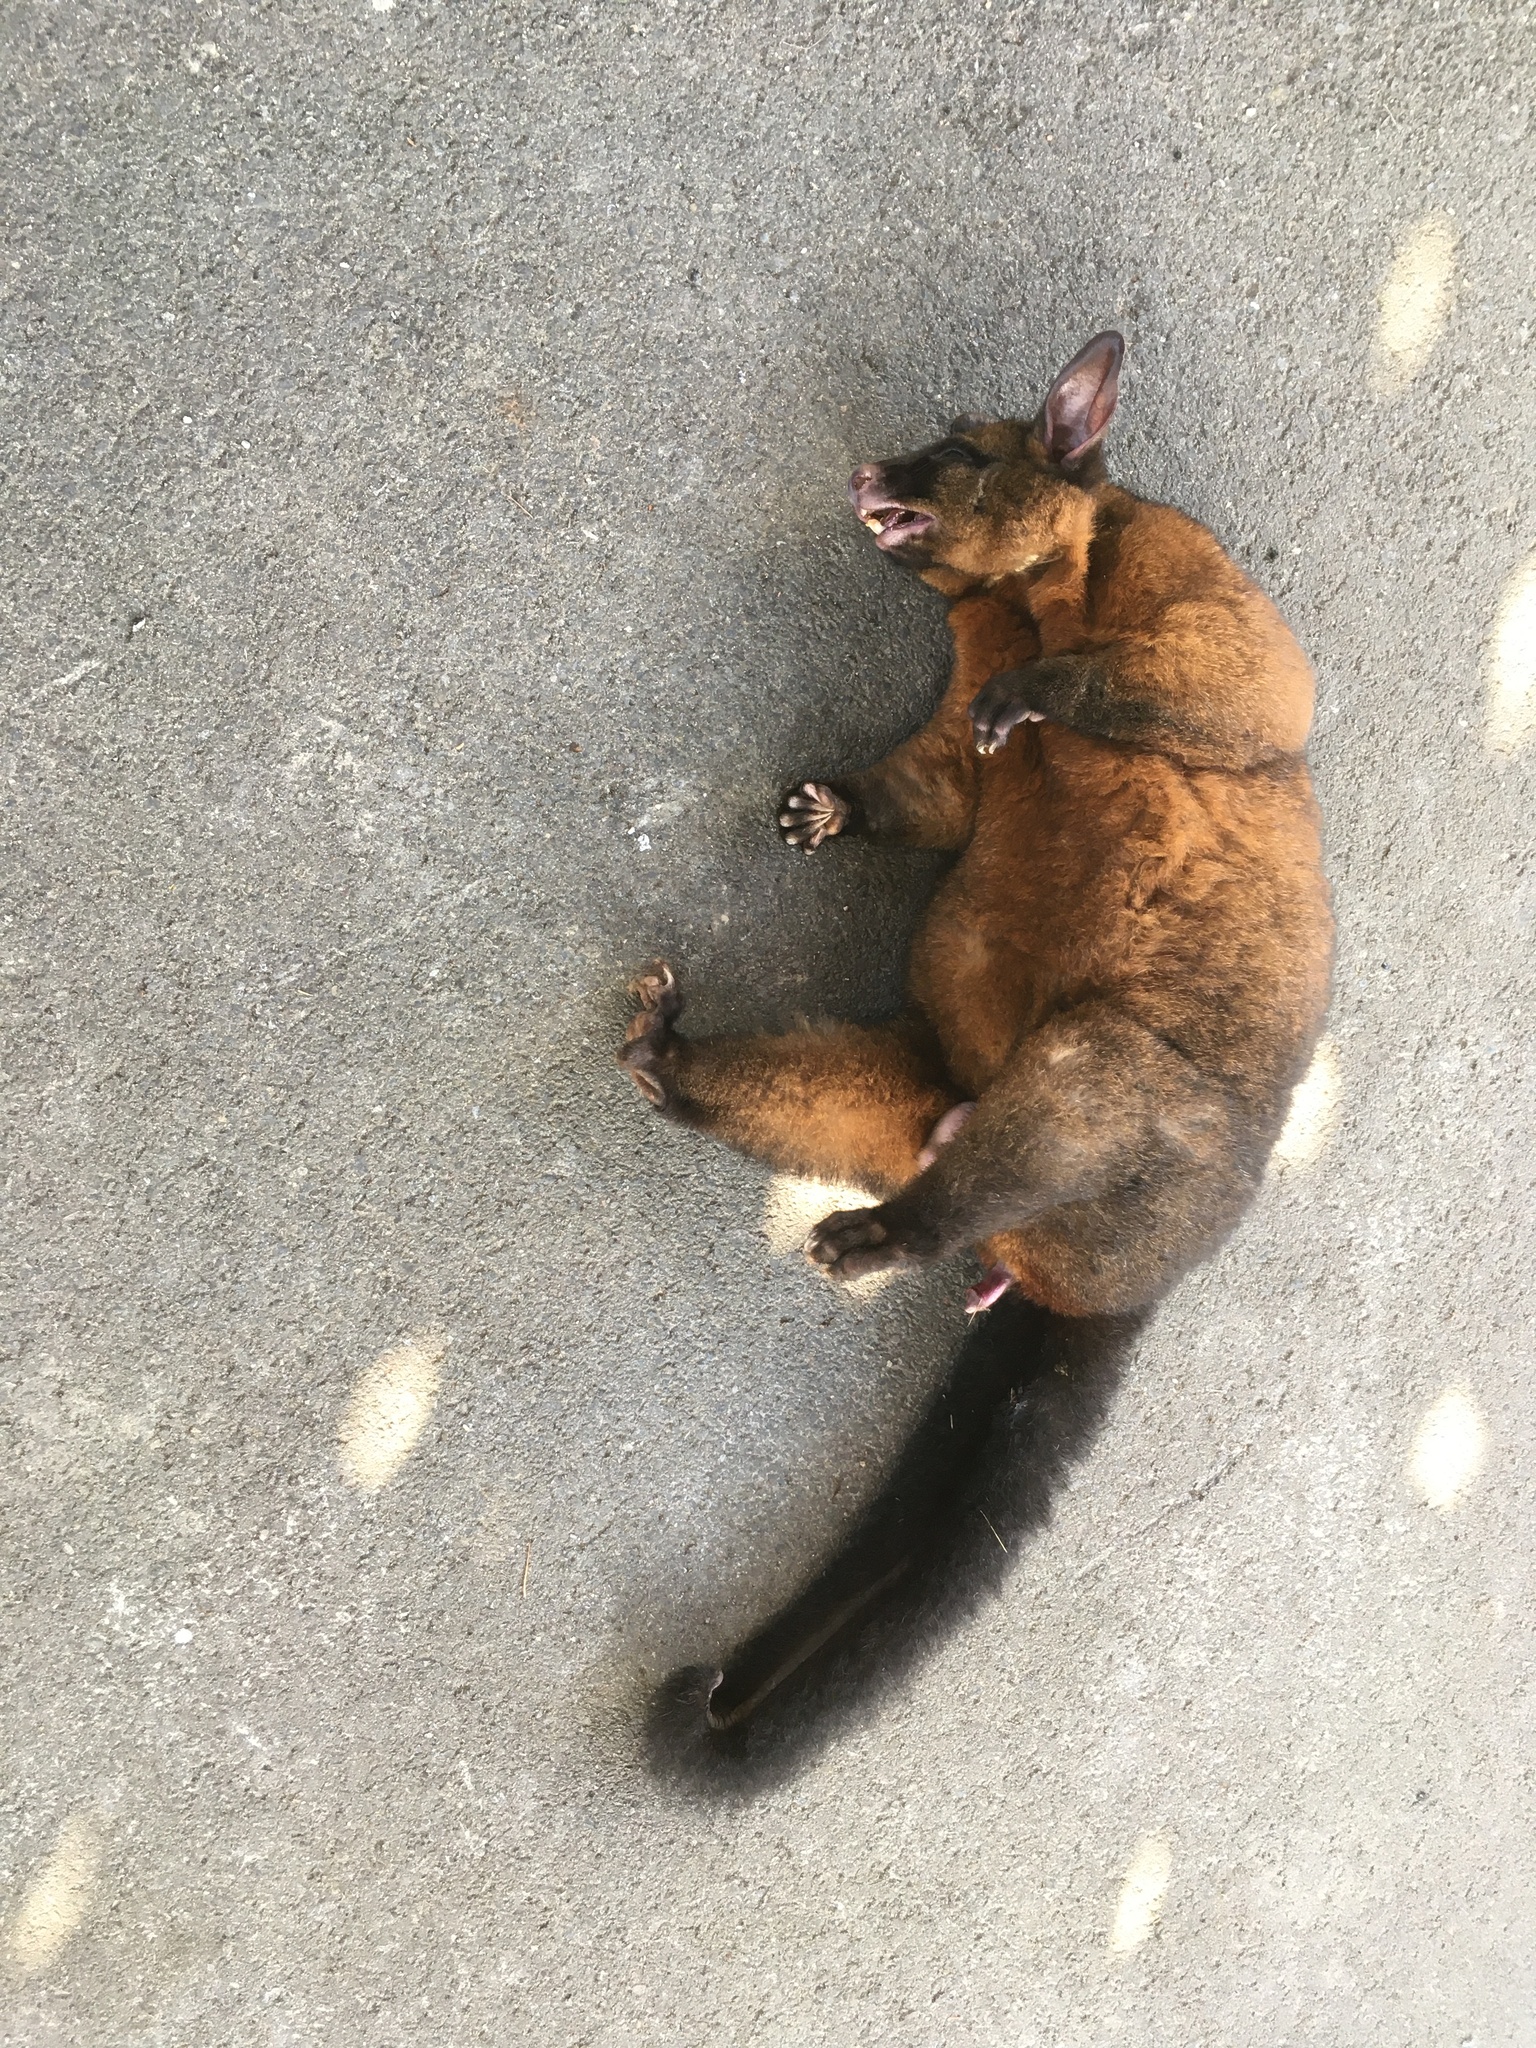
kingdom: Animalia
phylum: Chordata
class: Mammalia
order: Diprotodontia
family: Phalangeridae
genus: Trichosurus
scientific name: Trichosurus vulpecula
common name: Common brushtail
